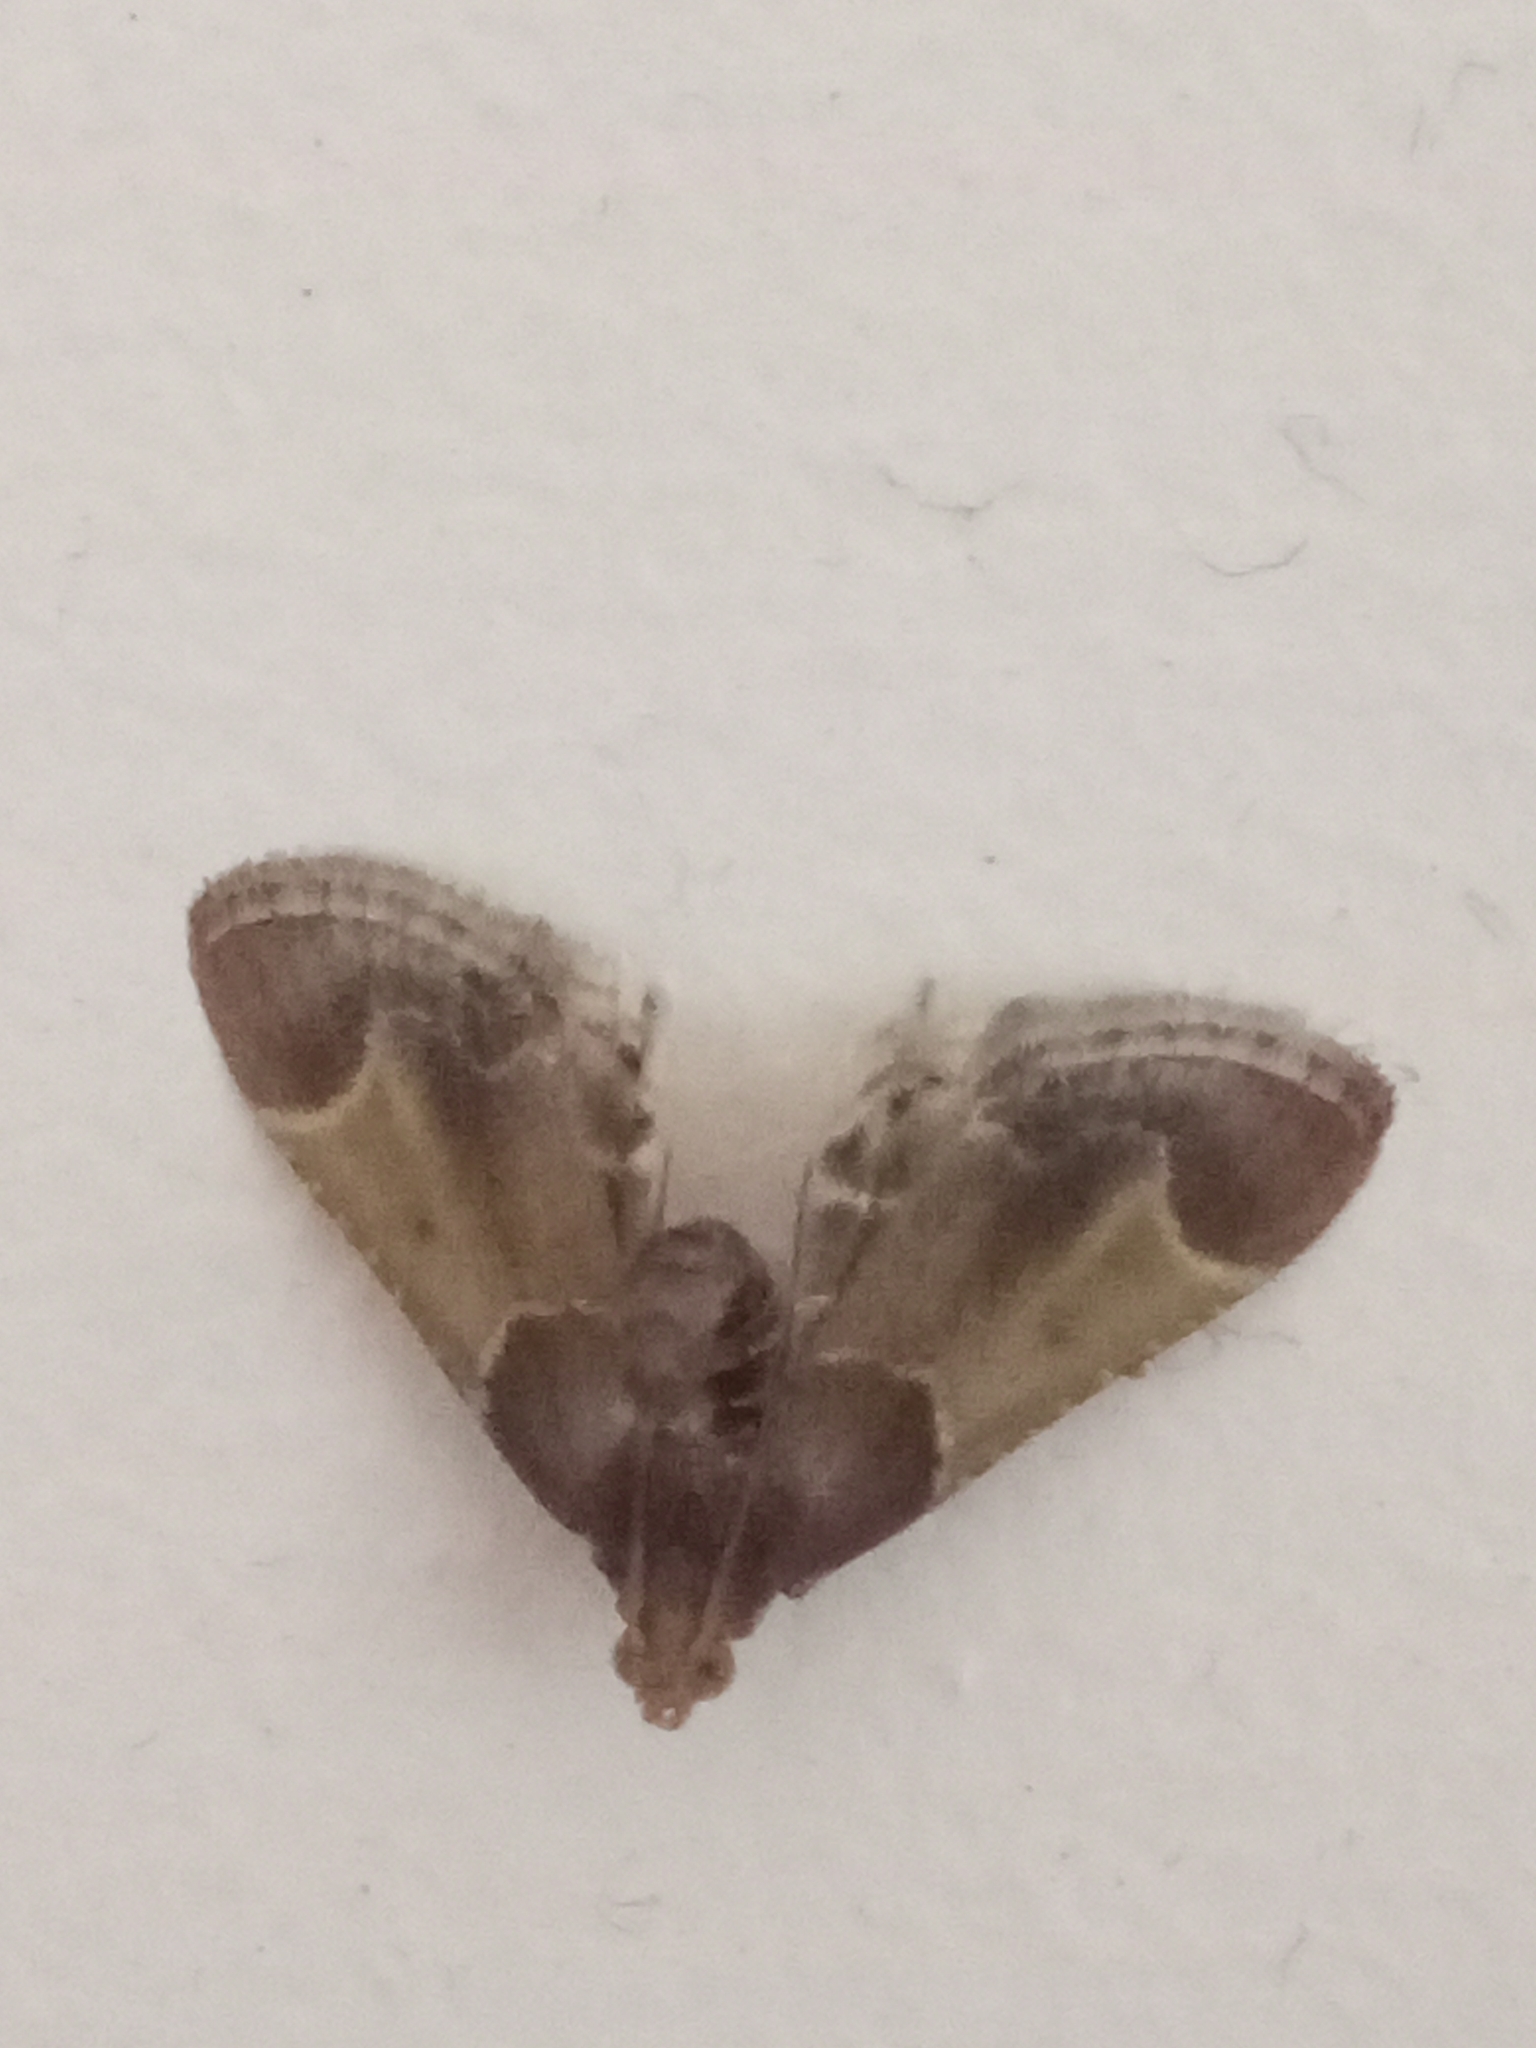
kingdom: Animalia
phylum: Arthropoda
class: Insecta
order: Lepidoptera
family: Pyralidae
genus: Pyralis
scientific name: Pyralis farinalis
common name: Meal moth
